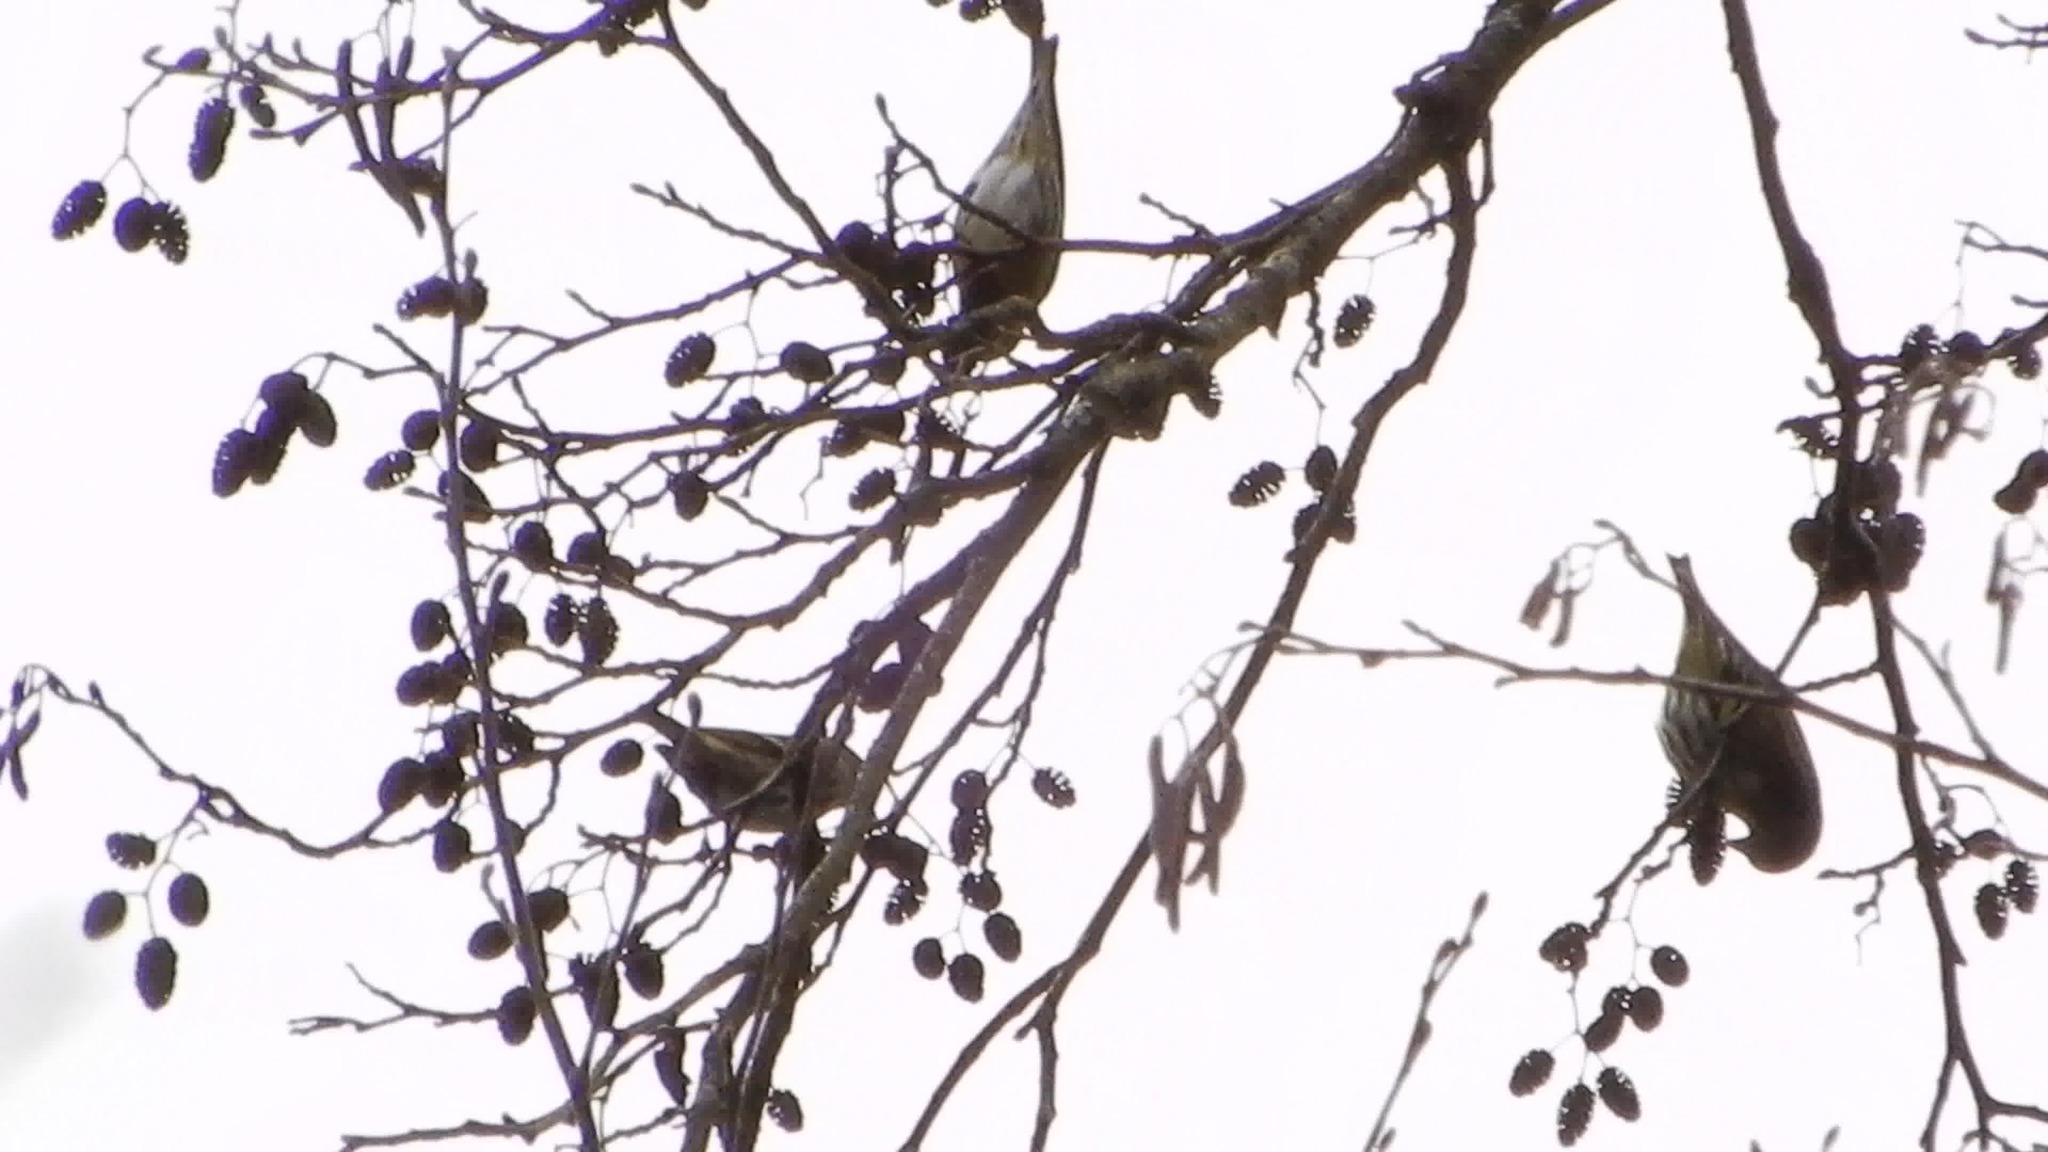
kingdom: Animalia
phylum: Chordata
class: Aves
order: Passeriformes
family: Fringillidae
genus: Spinus
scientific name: Spinus spinus
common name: Eurasian siskin
